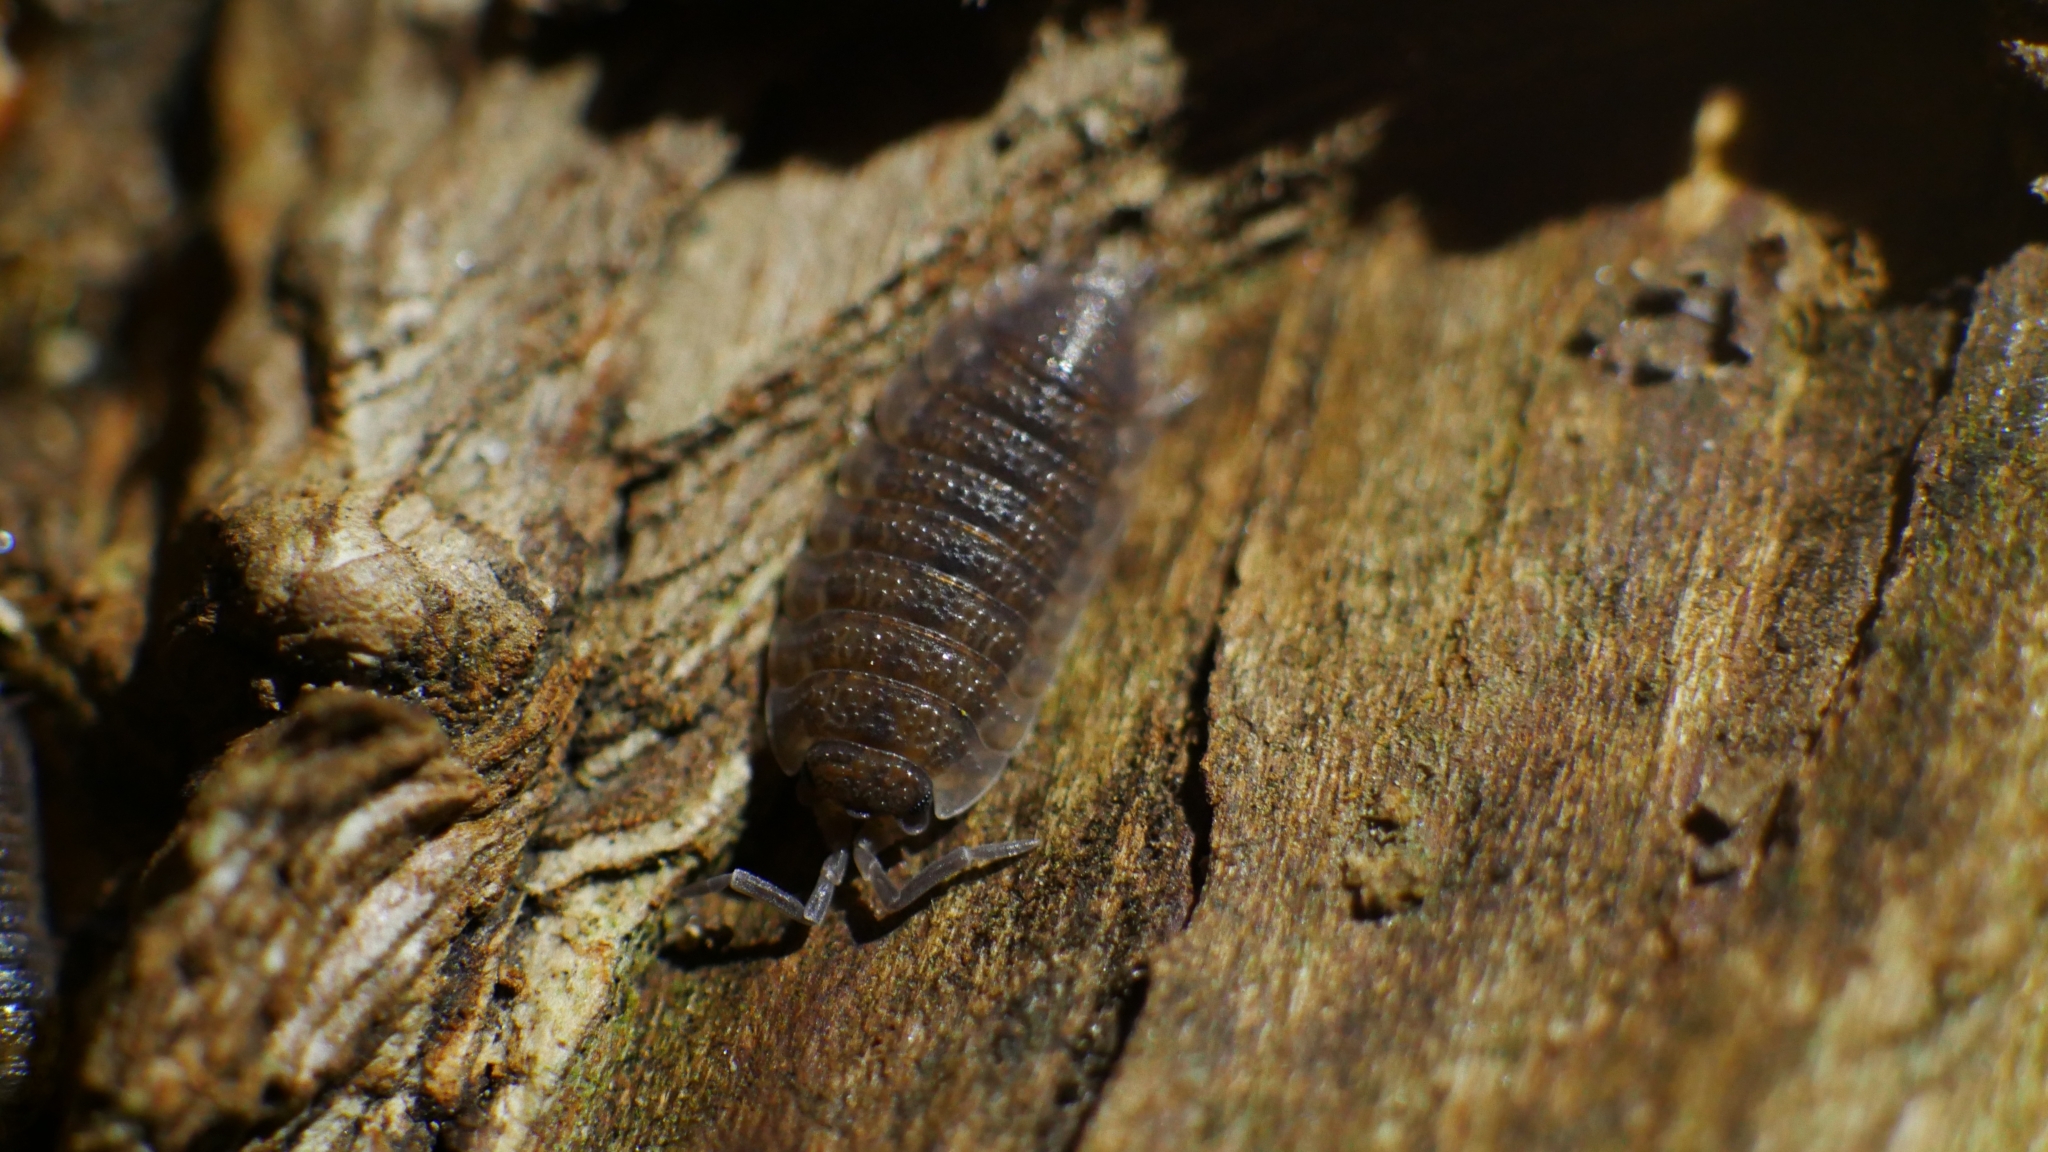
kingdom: Animalia
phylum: Arthropoda
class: Malacostraca
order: Isopoda
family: Porcellionidae
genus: Porcellio
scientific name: Porcellio scaber
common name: Common rough woodlouse
